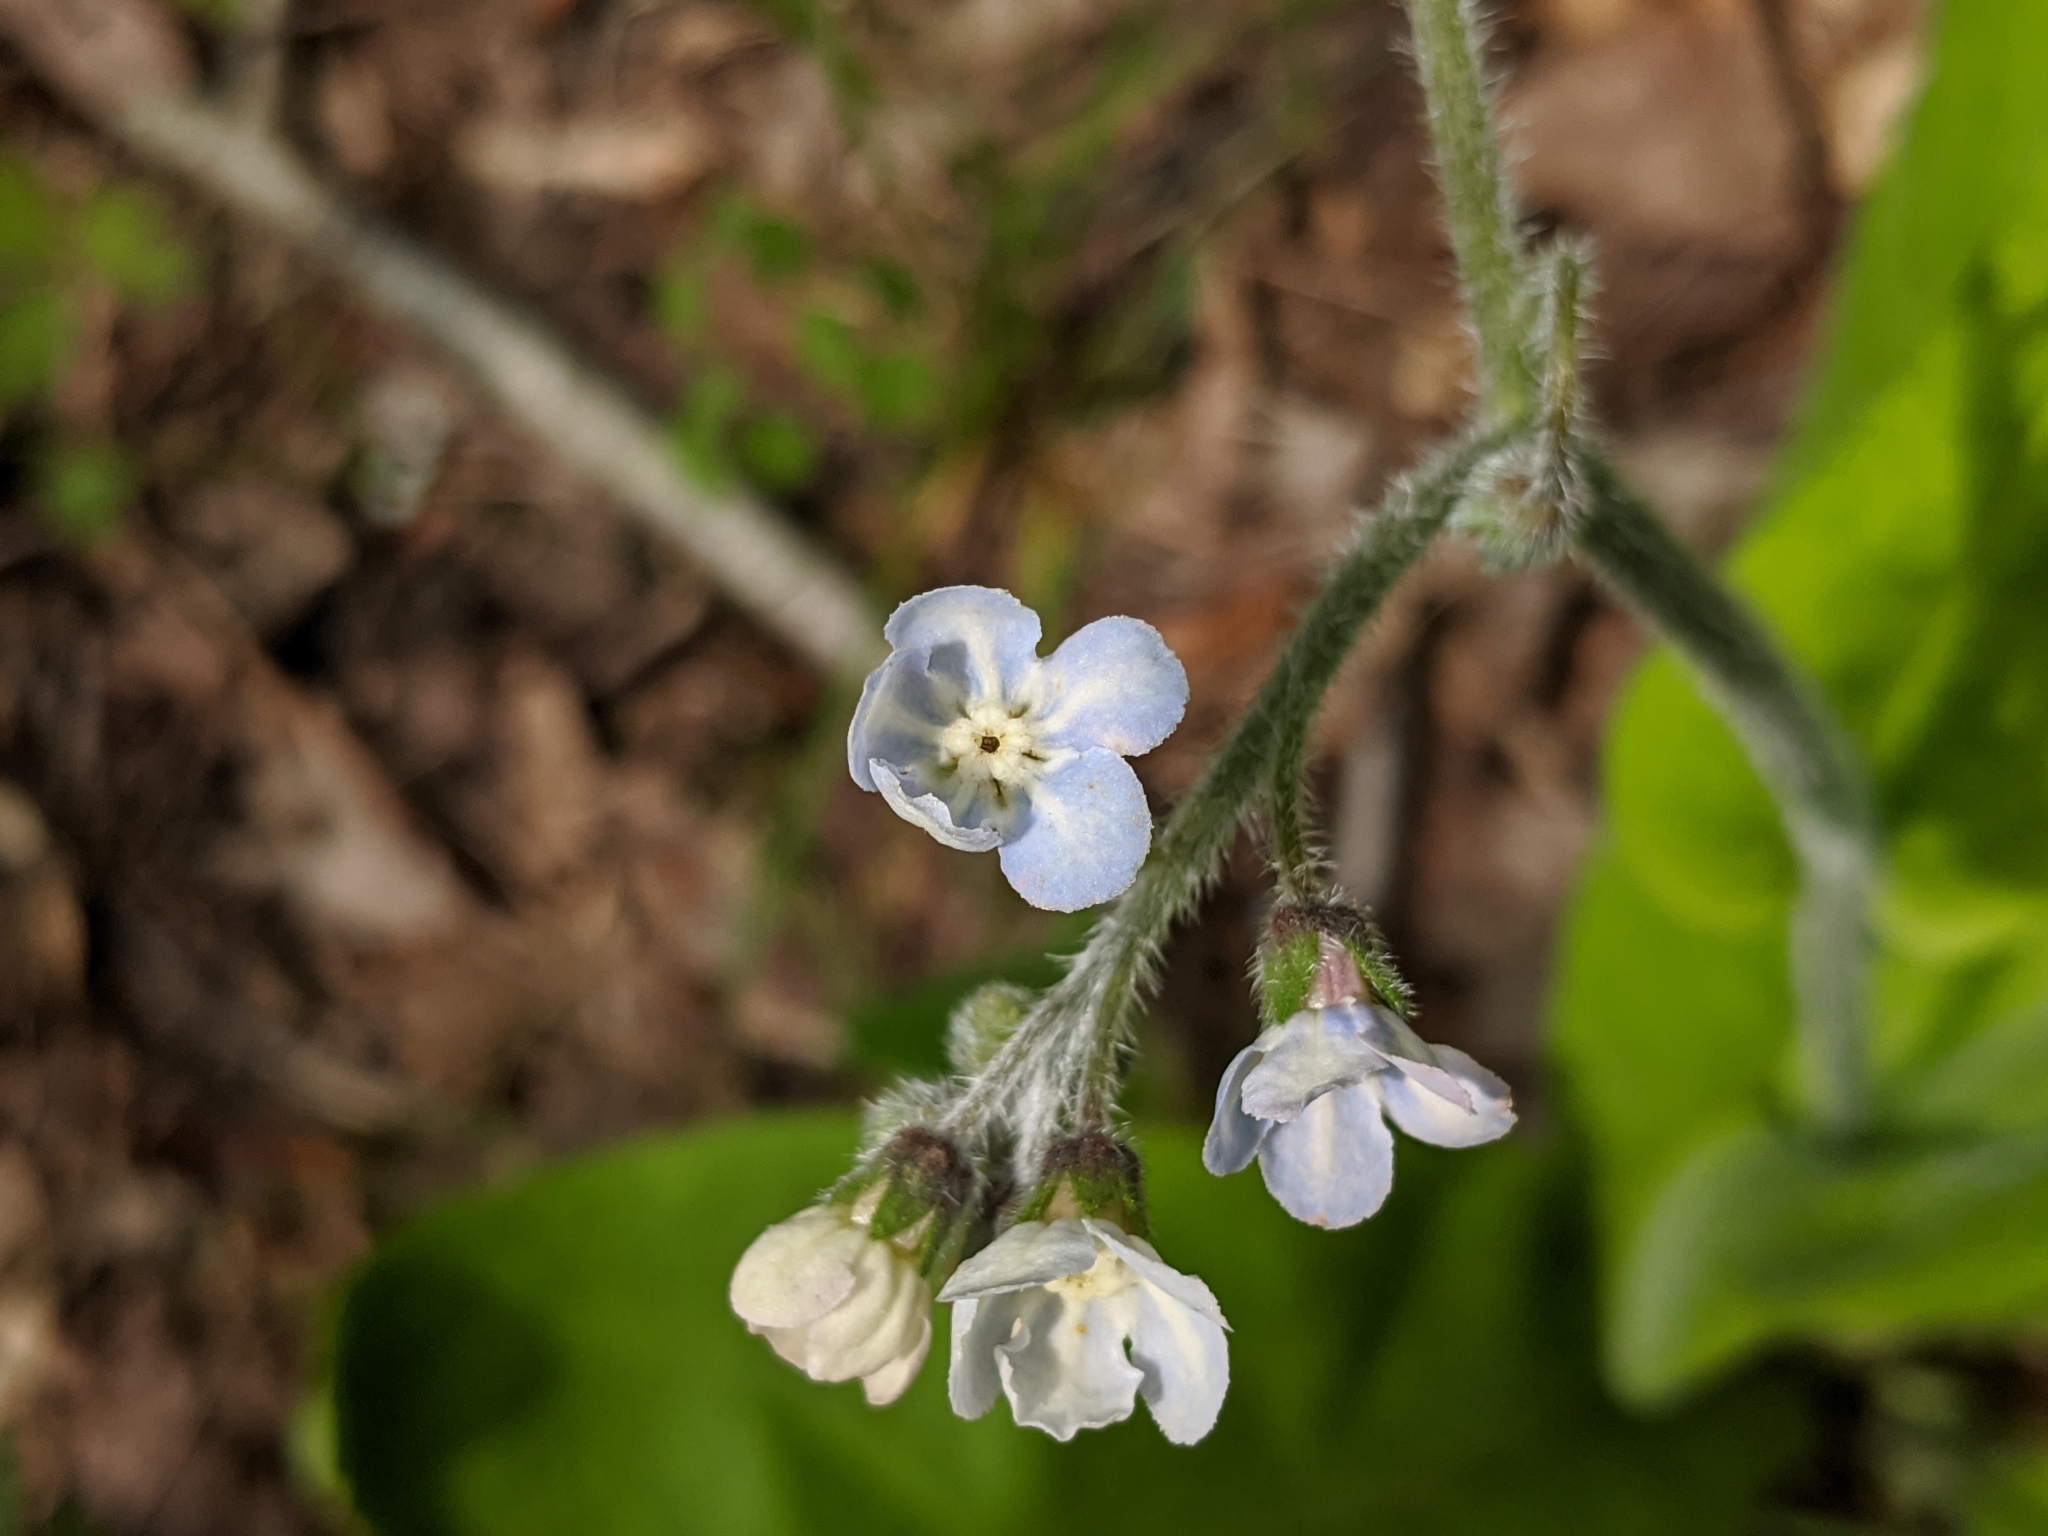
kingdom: Plantae
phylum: Tracheophyta
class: Magnoliopsida
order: Boraginales
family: Boraginaceae
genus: Andersonglossum
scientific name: Andersonglossum virginianum
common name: Wild comfrey
